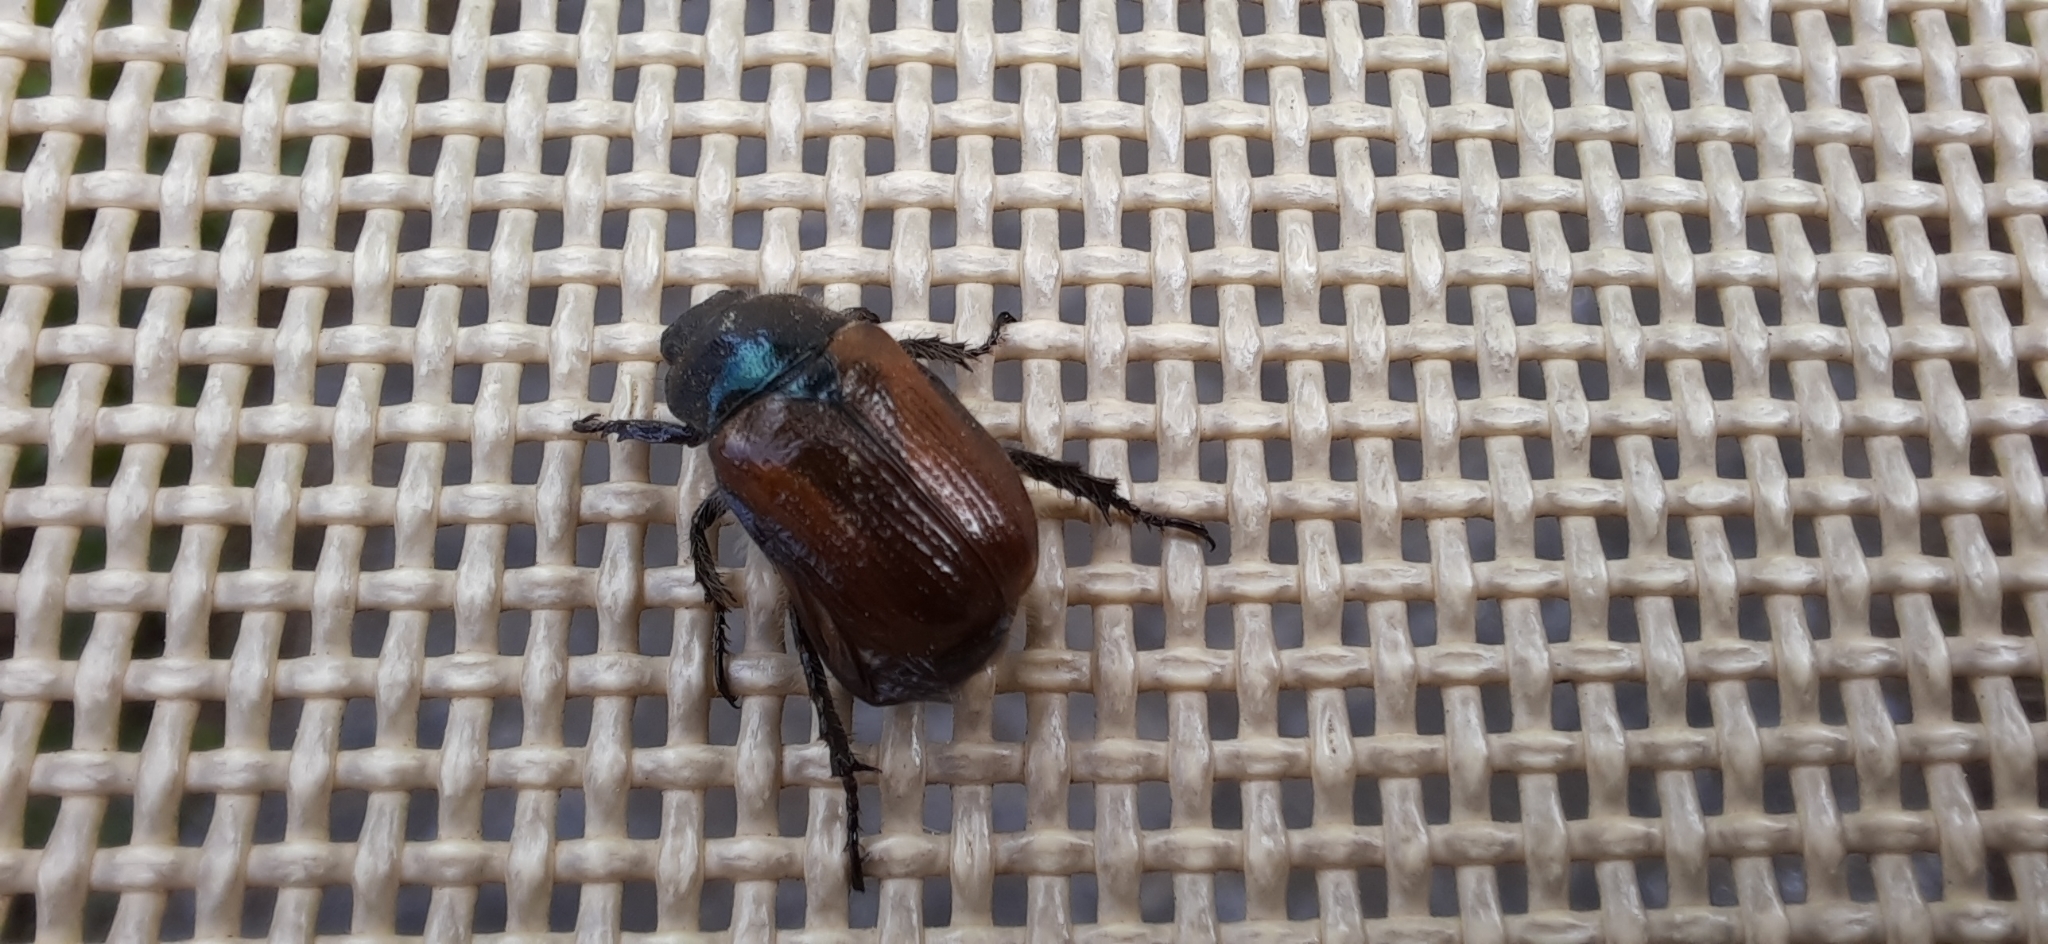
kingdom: Animalia
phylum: Arthropoda
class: Insecta
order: Coleoptera
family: Scarabaeidae
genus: Phyllopertha
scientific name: Phyllopertha horticola
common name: Garden chafer
